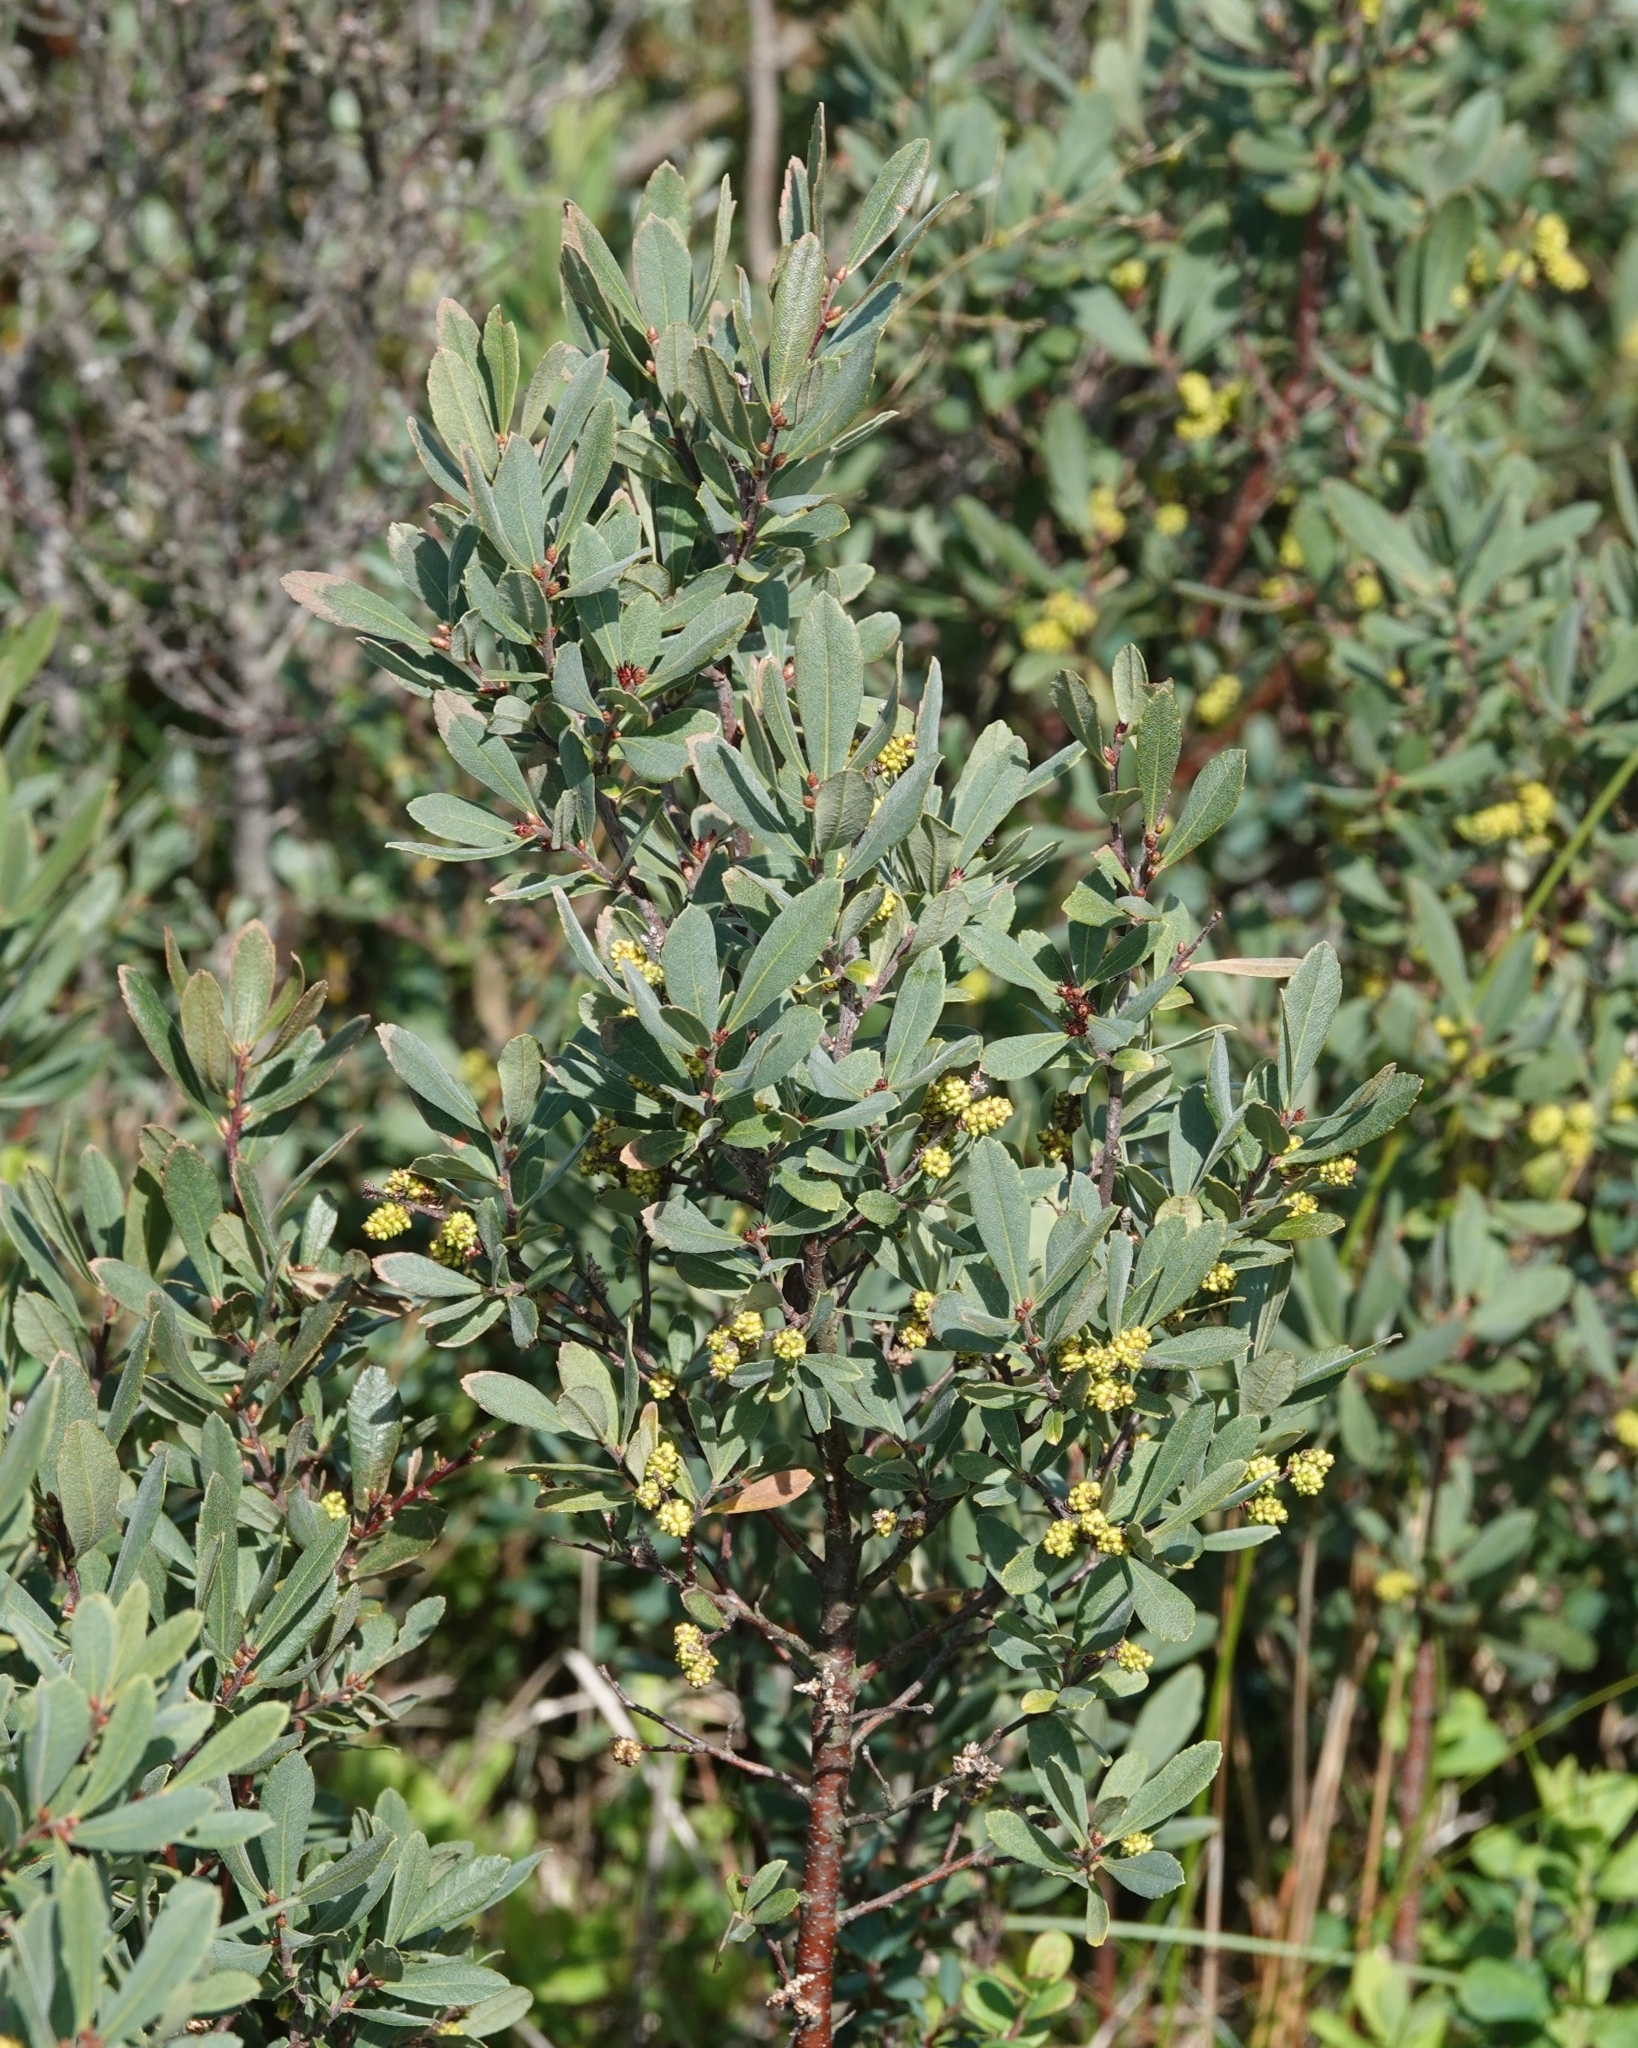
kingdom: Plantae
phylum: Tracheophyta
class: Magnoliopsida
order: Fagales
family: Myricaceae
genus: Myrica
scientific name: Myrica gale
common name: Sweet gale
